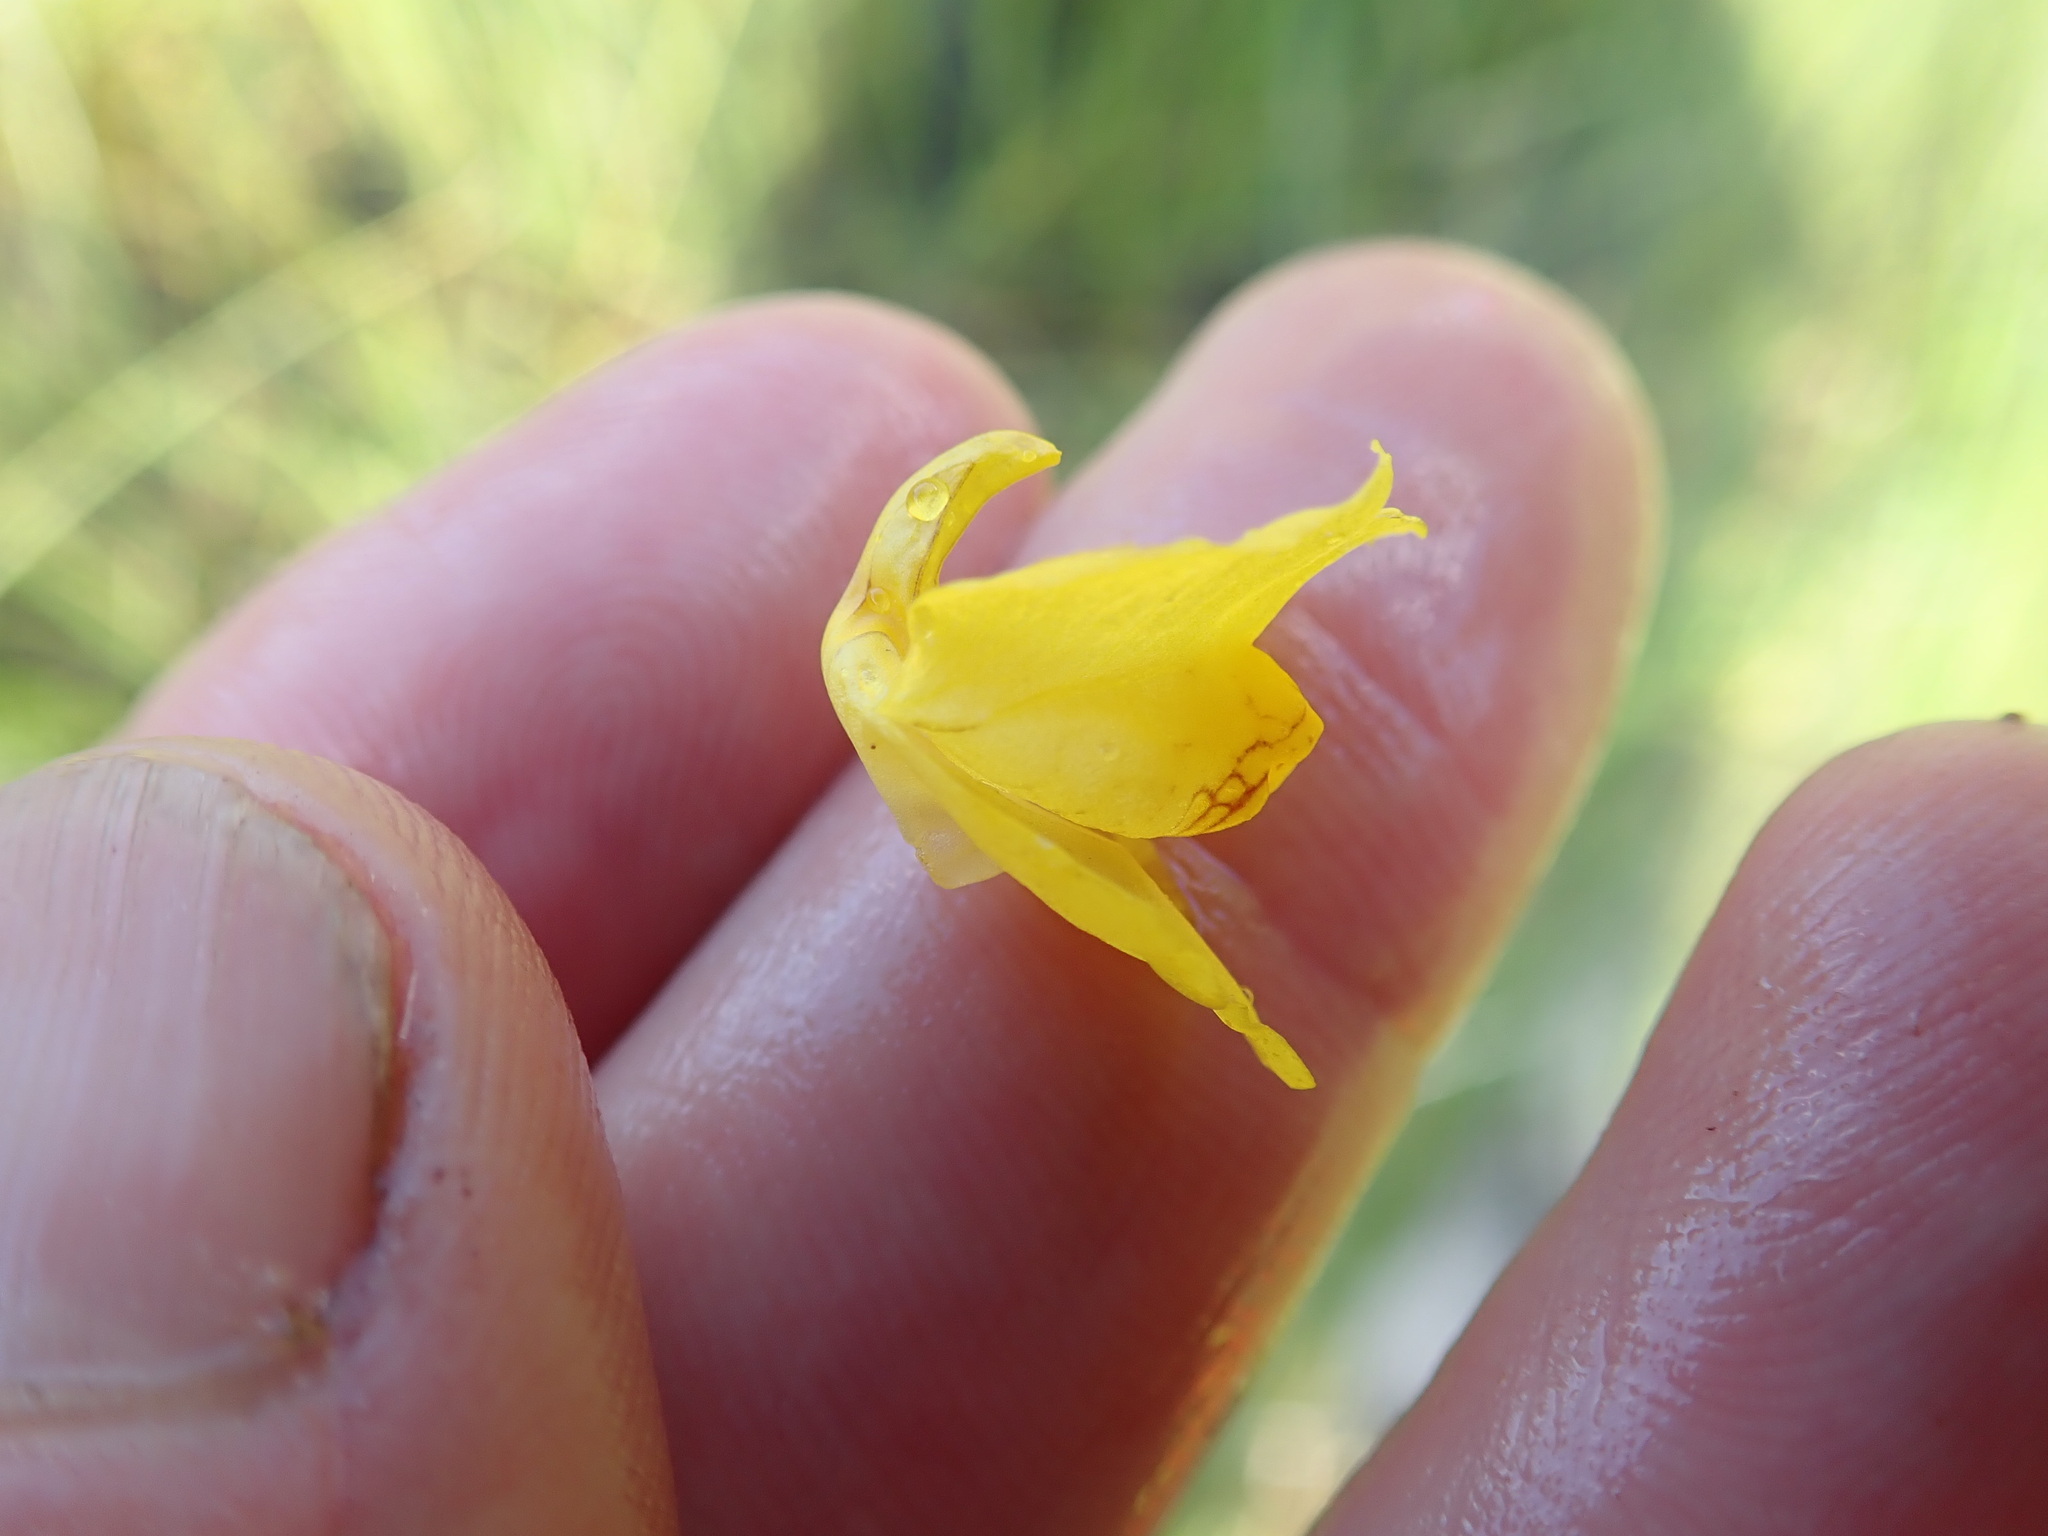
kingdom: Plantae
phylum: Tracheophyta
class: Magnoliopsida
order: Lamiales
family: Lentibulariaceae
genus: Utricularia
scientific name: Utricularia macrorhiza
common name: Common bladderwort
